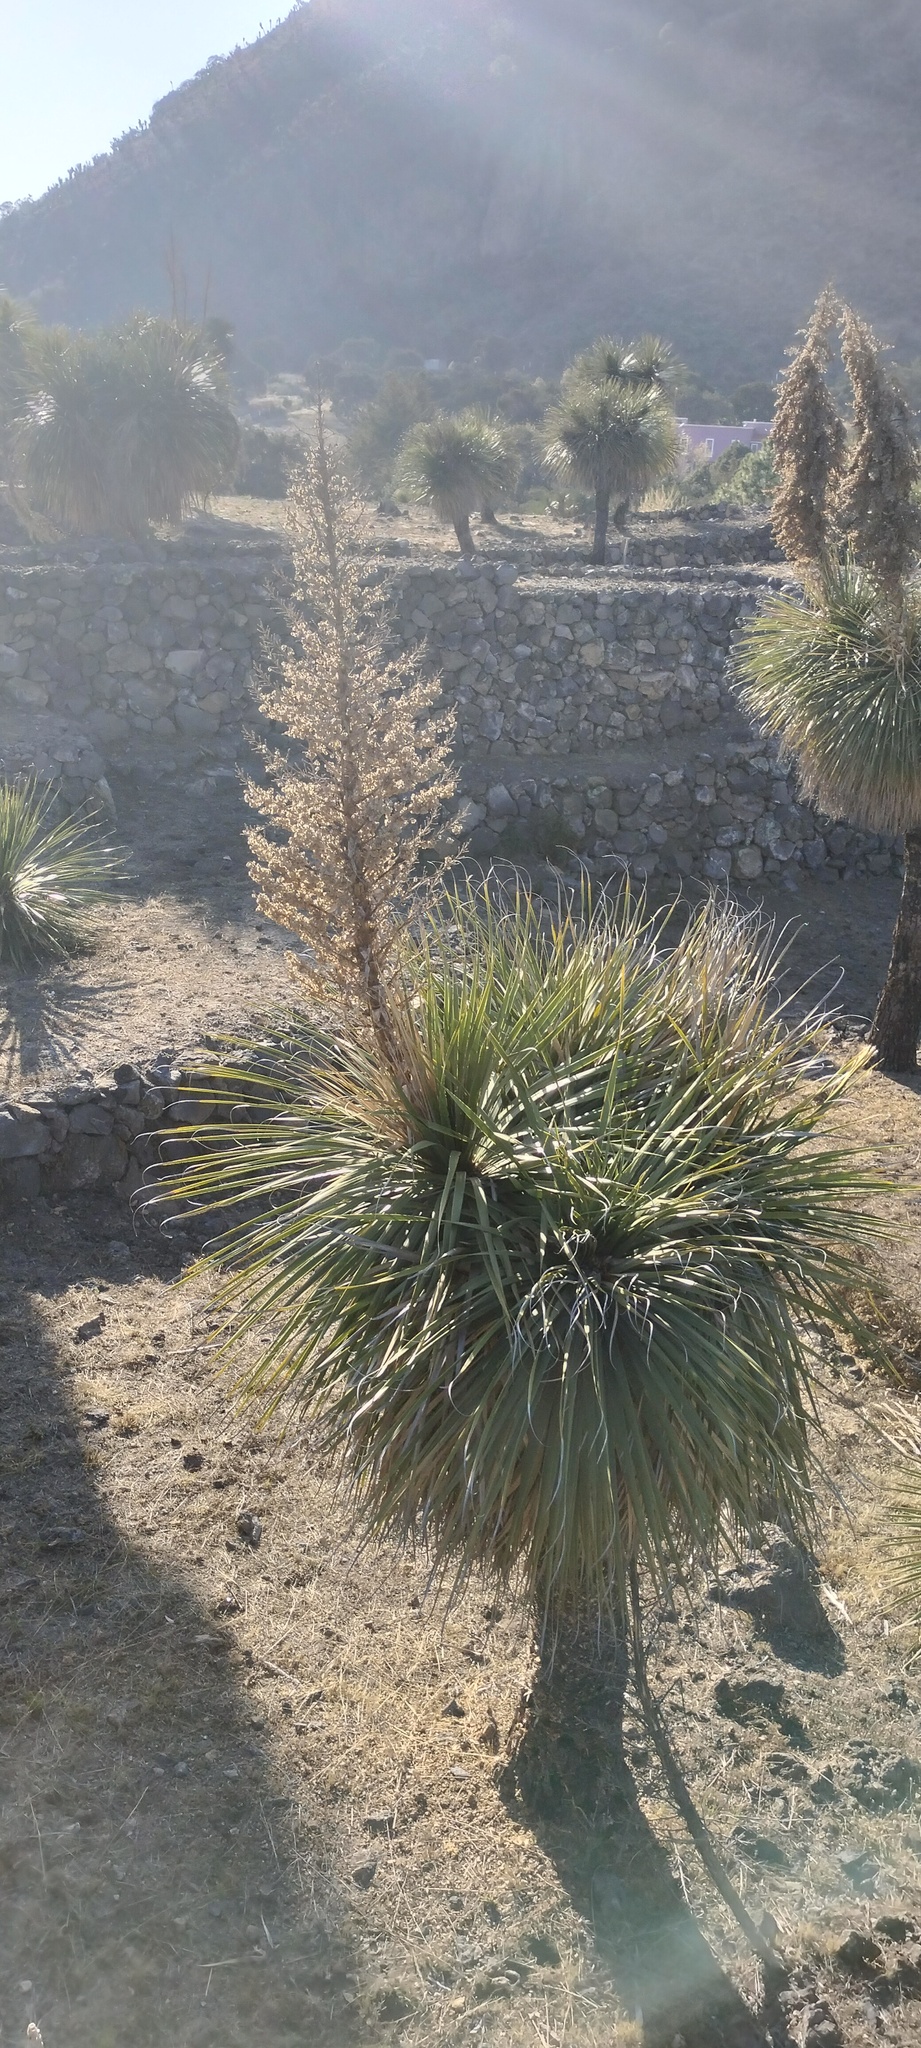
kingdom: Plantae
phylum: Tracheophyta
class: Liliopsida
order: Asparagales
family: Asparagaceae
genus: Nolina
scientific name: Nolina parviflora
